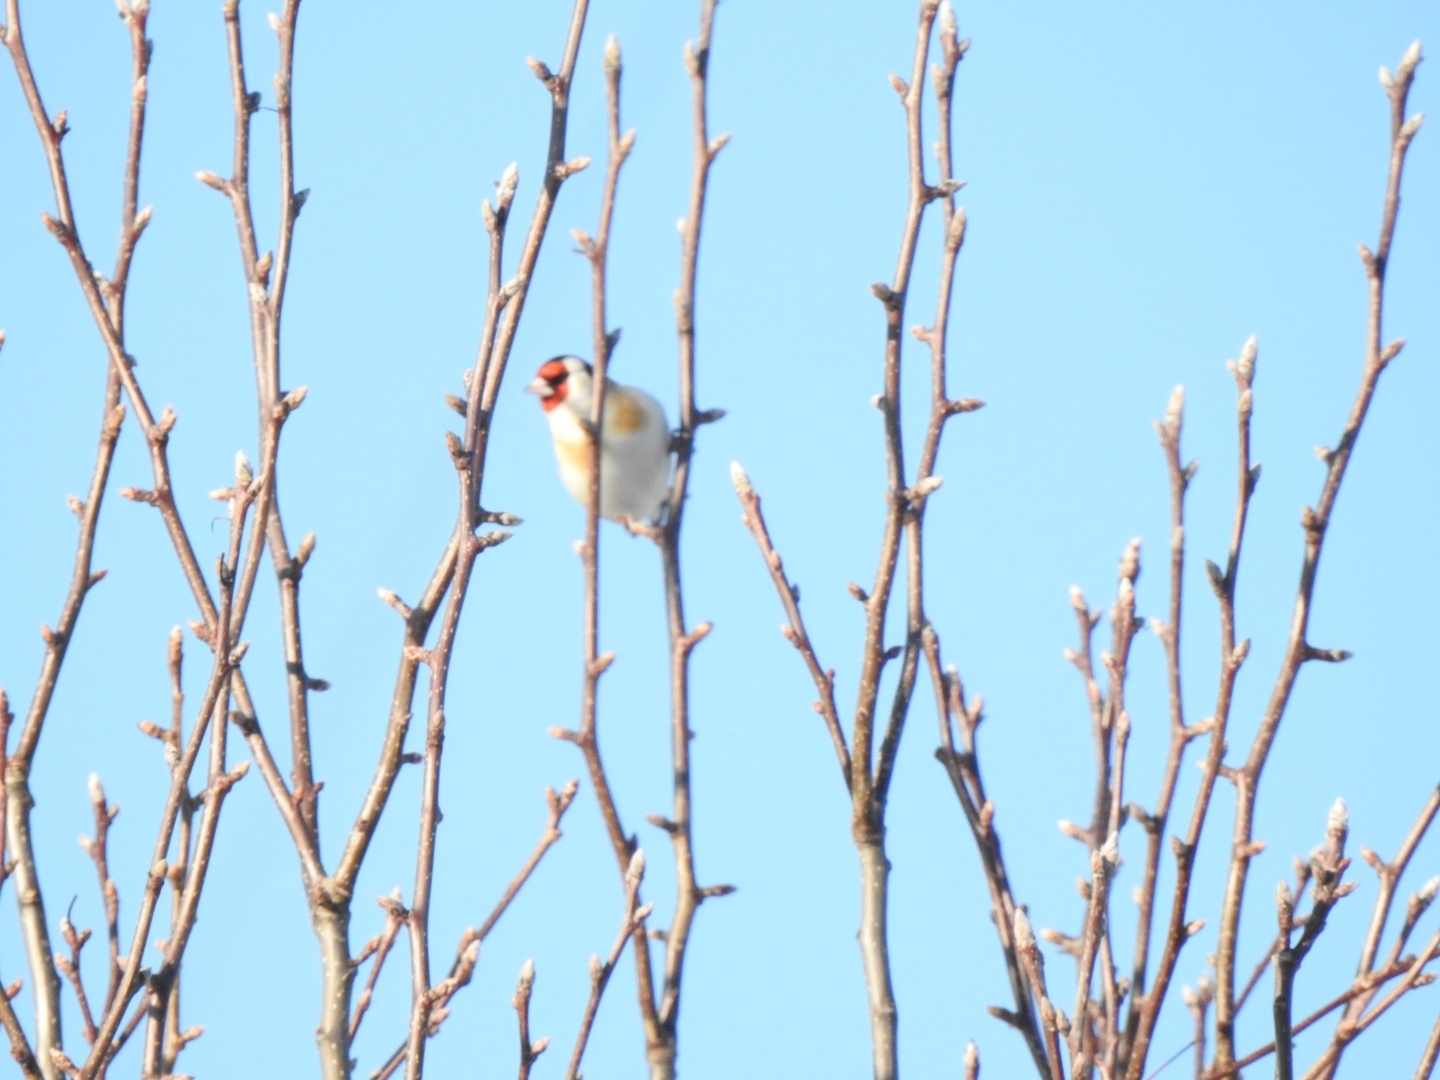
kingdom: Animalia
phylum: Chordata
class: Aves
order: Passeriformes
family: Fringillidae
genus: Carduelis
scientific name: Carduelis carduelis
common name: European goldfinch
